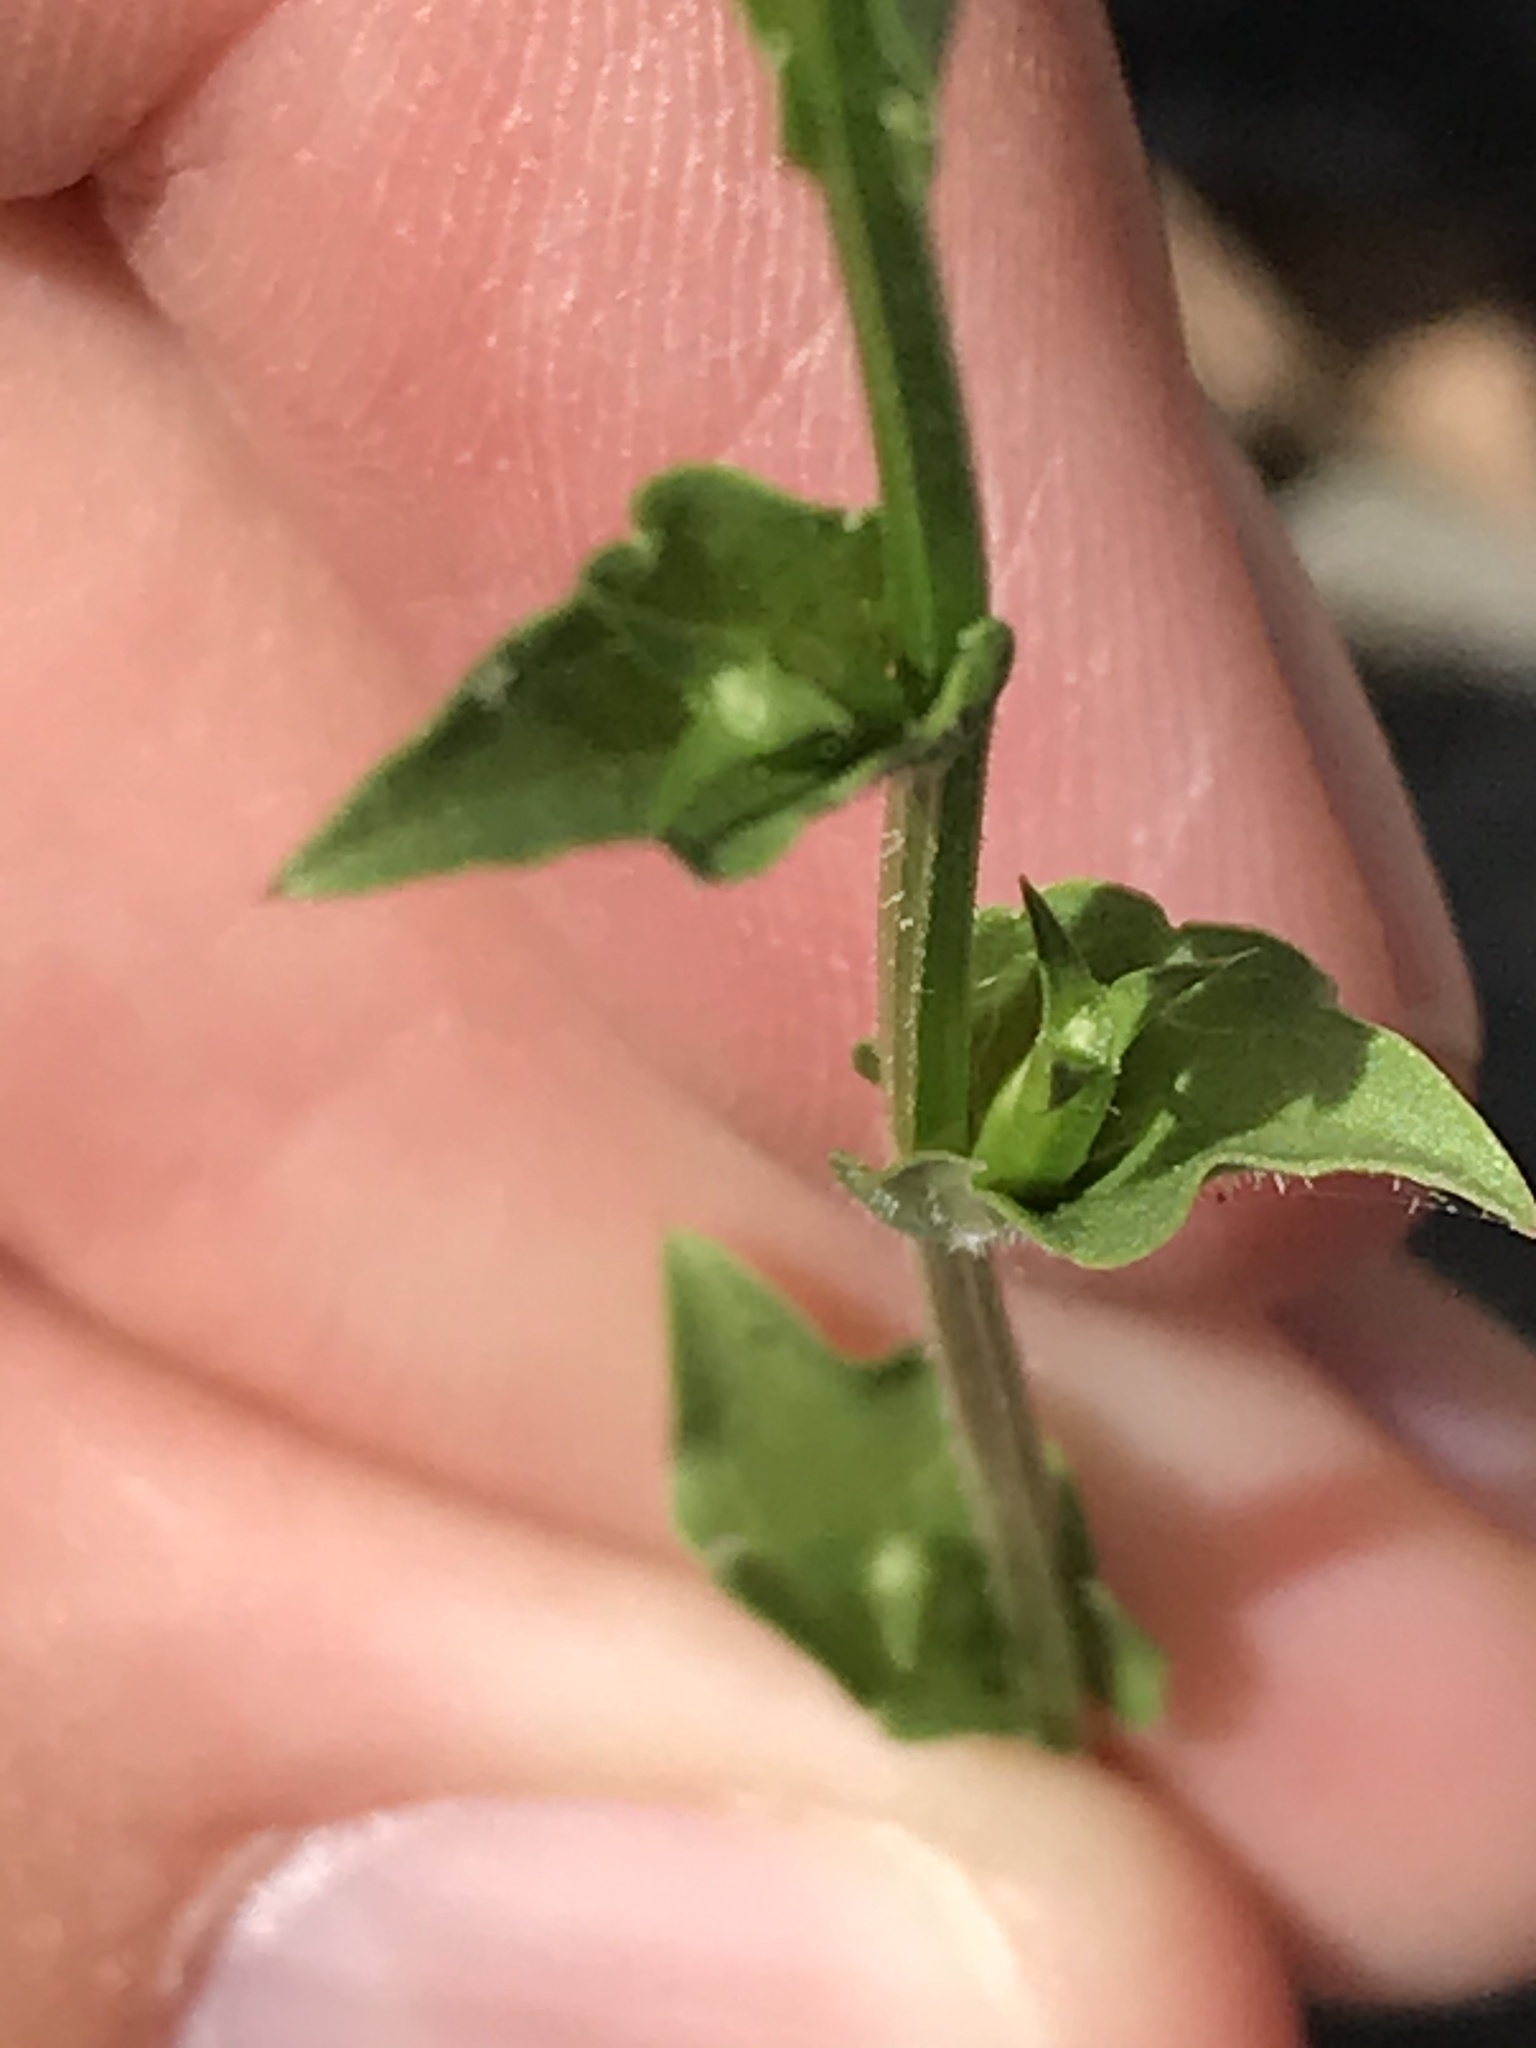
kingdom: Plantae
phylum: Tracheophyta
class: Magnoliopsida
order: Asterales
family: Campanulaceae
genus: Triodanis
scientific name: Triodanis perfoliata
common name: Clasping venus' looking-glass
